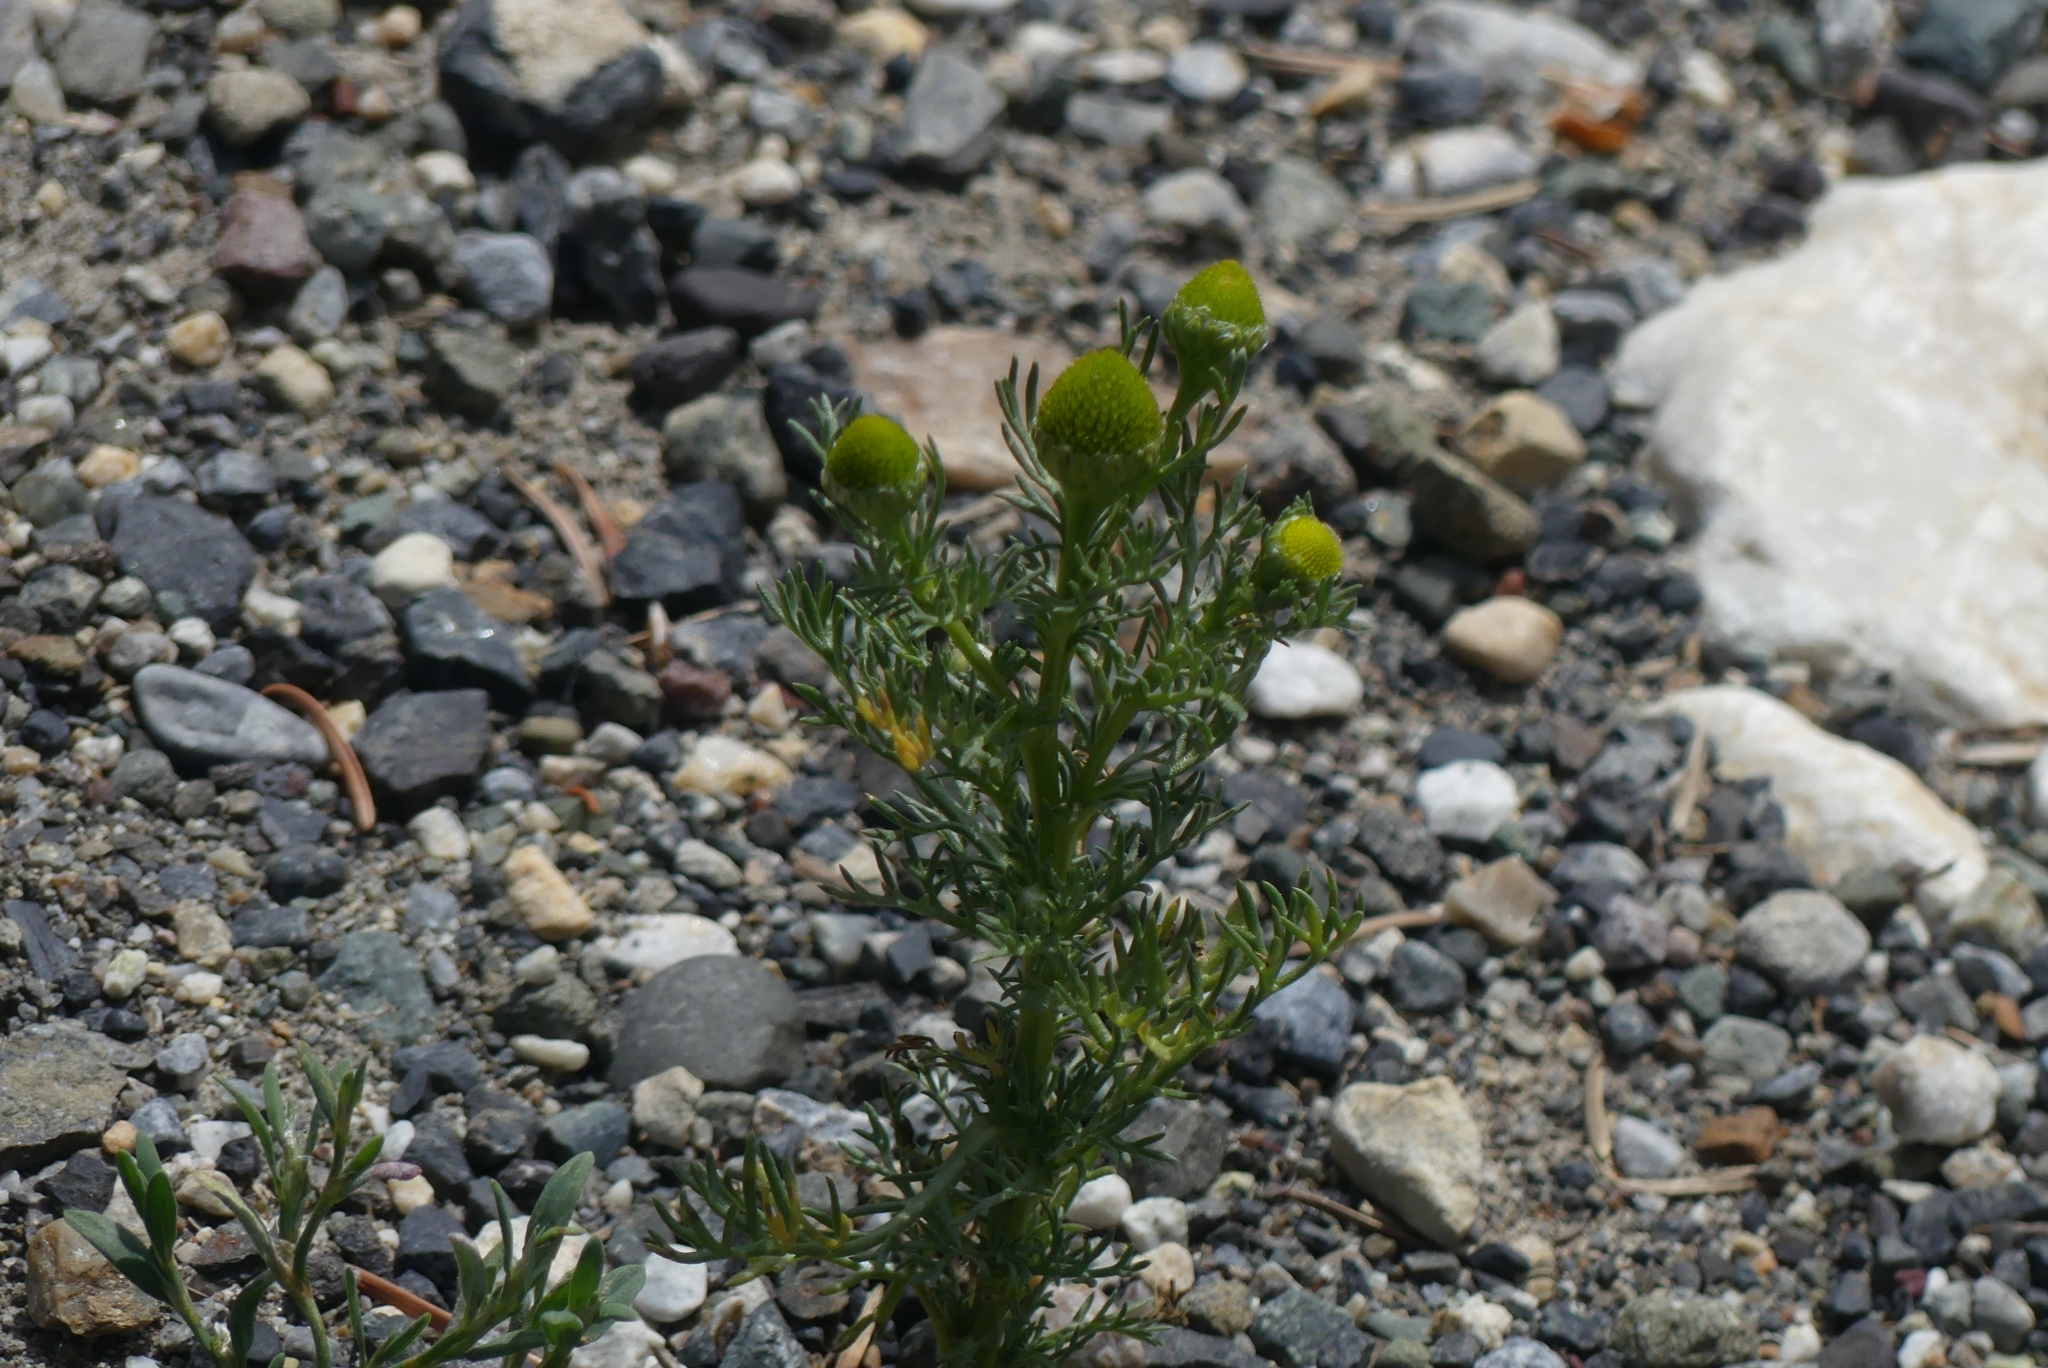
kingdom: Plantae
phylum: Tracheophyta
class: Magnoliopsida
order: Asterales
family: Asteraceae
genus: Matricaria
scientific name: Matricaria discoidea
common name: Disc mayweed
